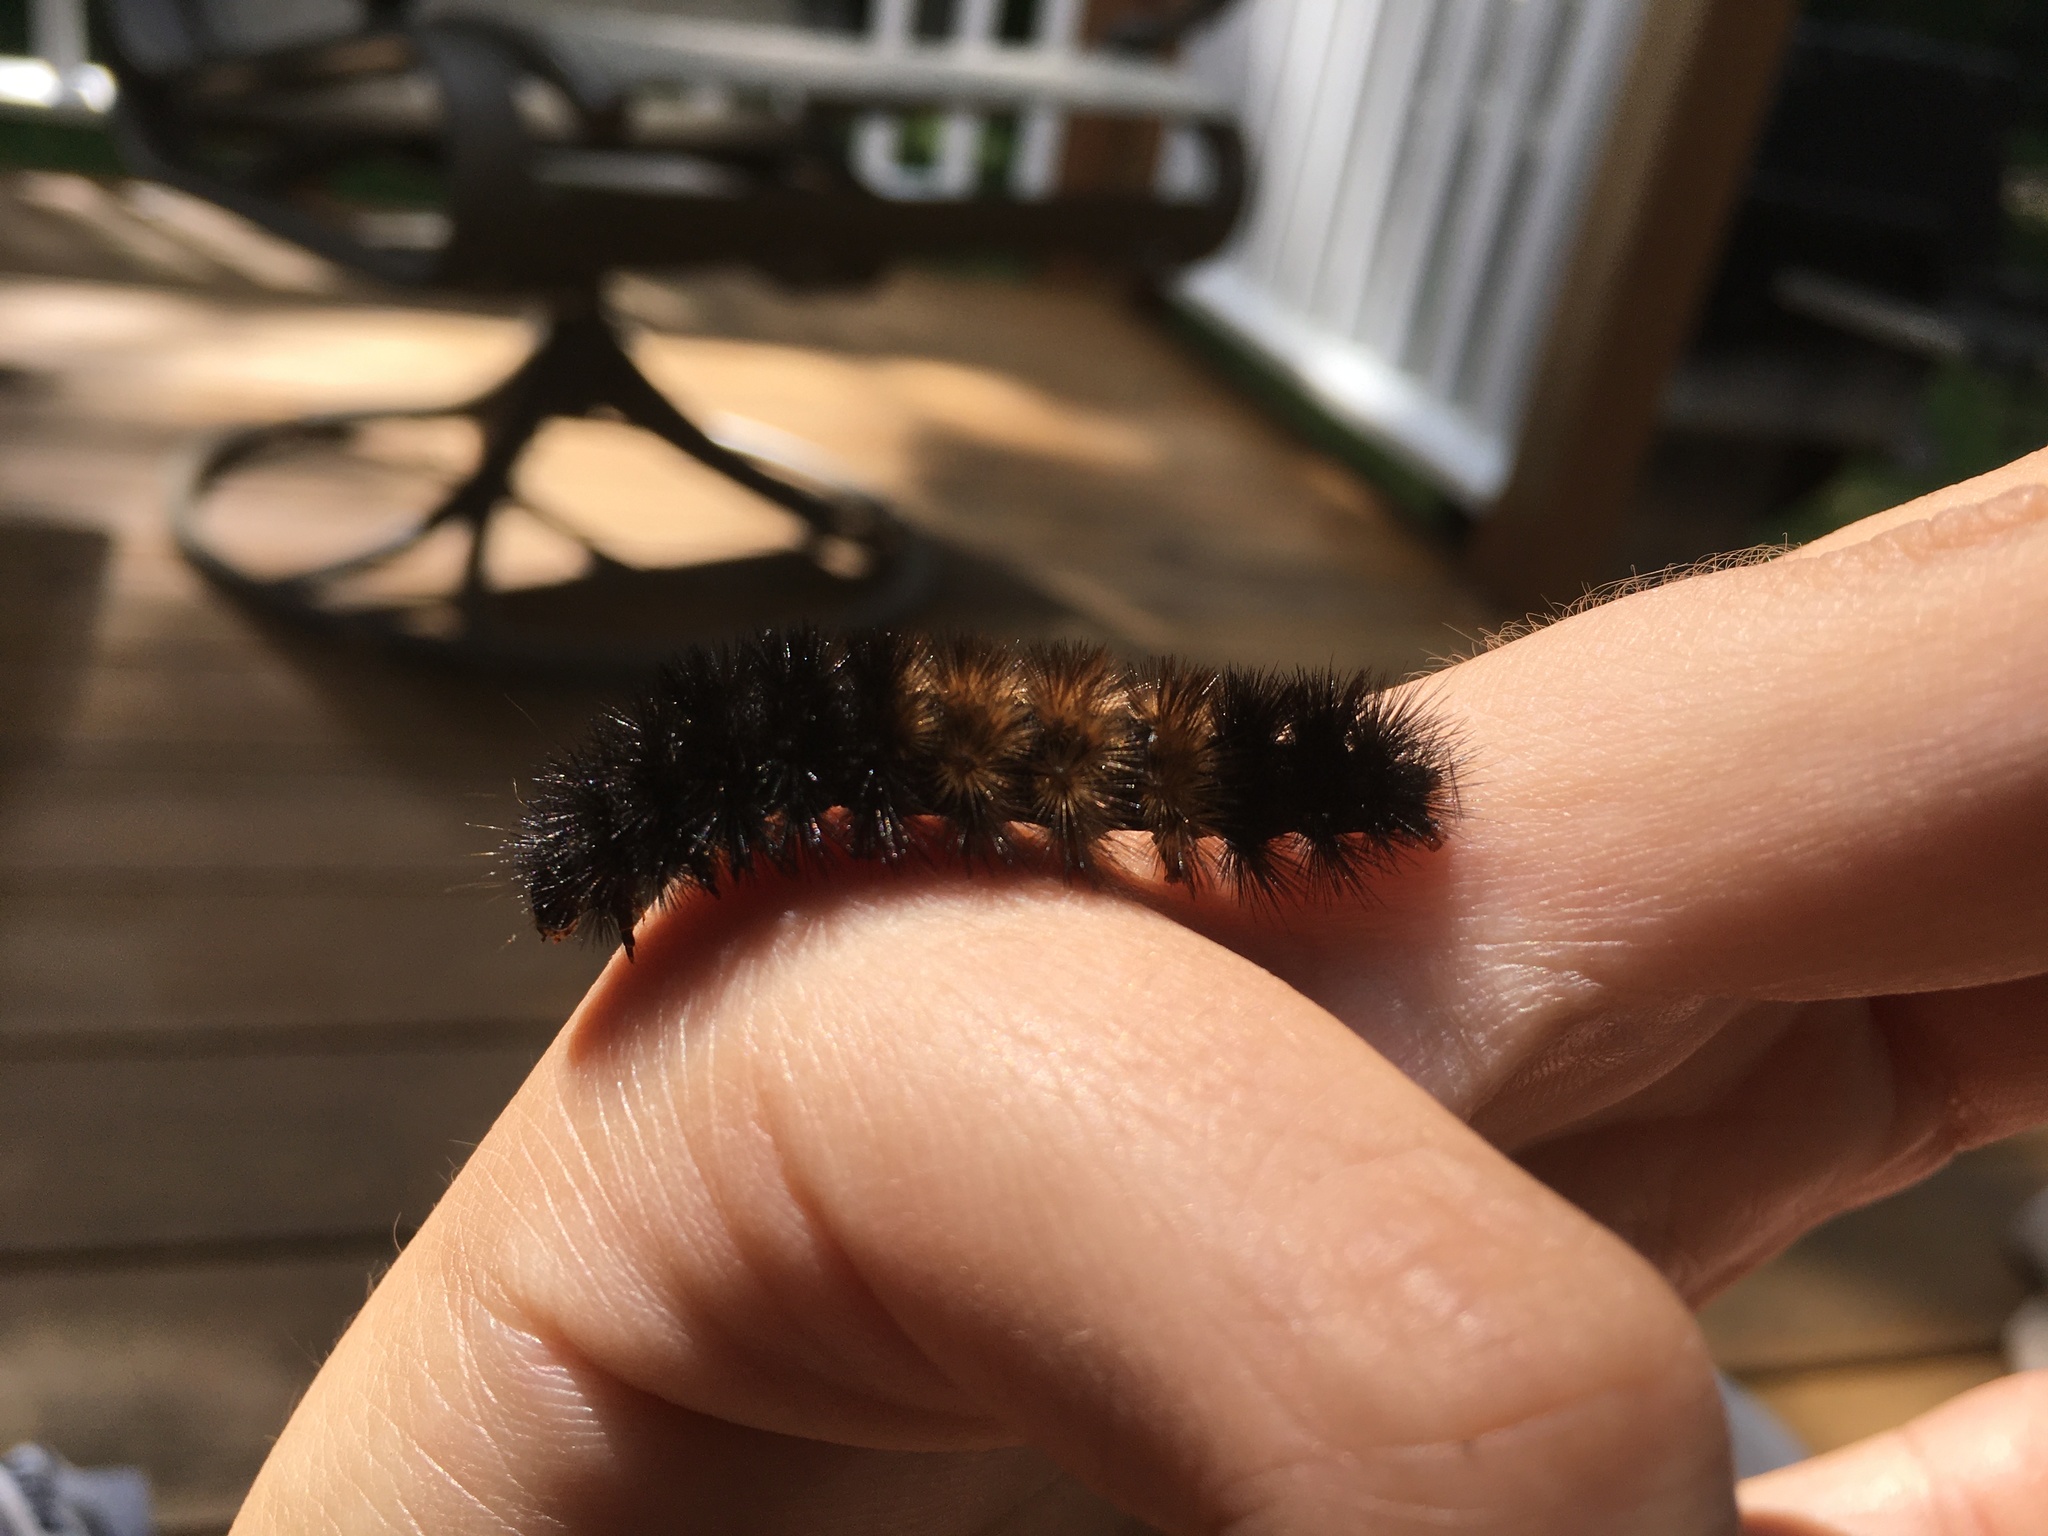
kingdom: Animalia
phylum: Arthropoda
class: Insecta
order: Lepidoptera
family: Erebidae
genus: Pyrrharctia
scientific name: Pyrrharctia isabella
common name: Isabella tiger moth
